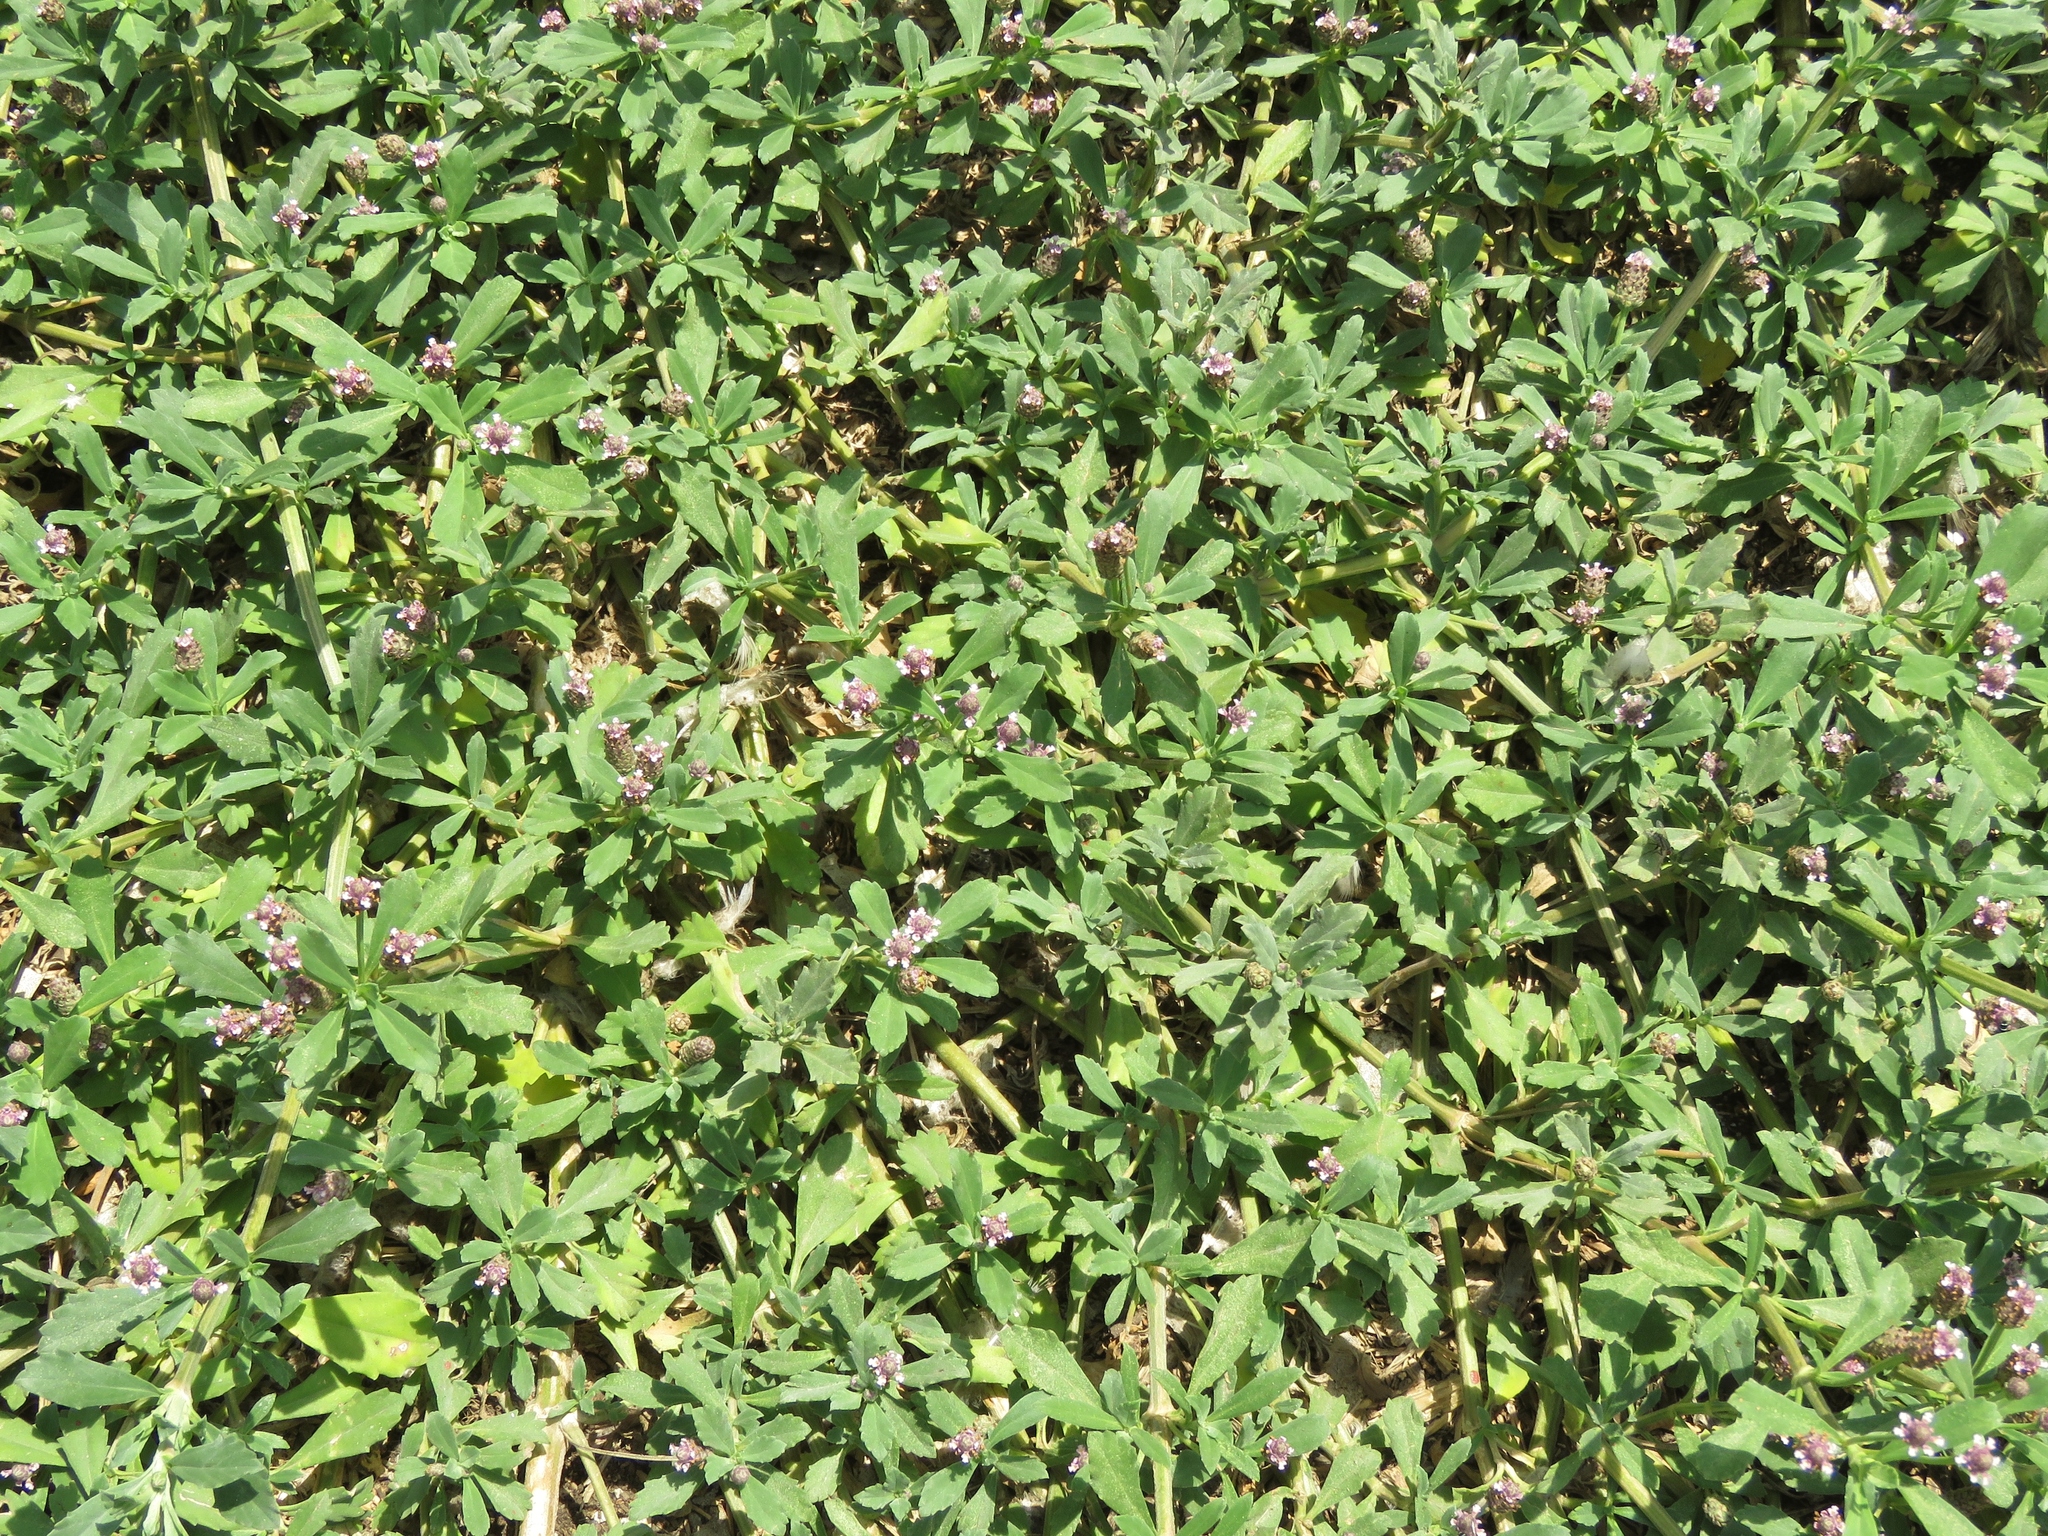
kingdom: Plantae
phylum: Tracheophyta
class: Magnoliopsida
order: Lamiales
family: Verbenaceae
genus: Phyla
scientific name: Phyla nodiflora
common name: Frogfruit
